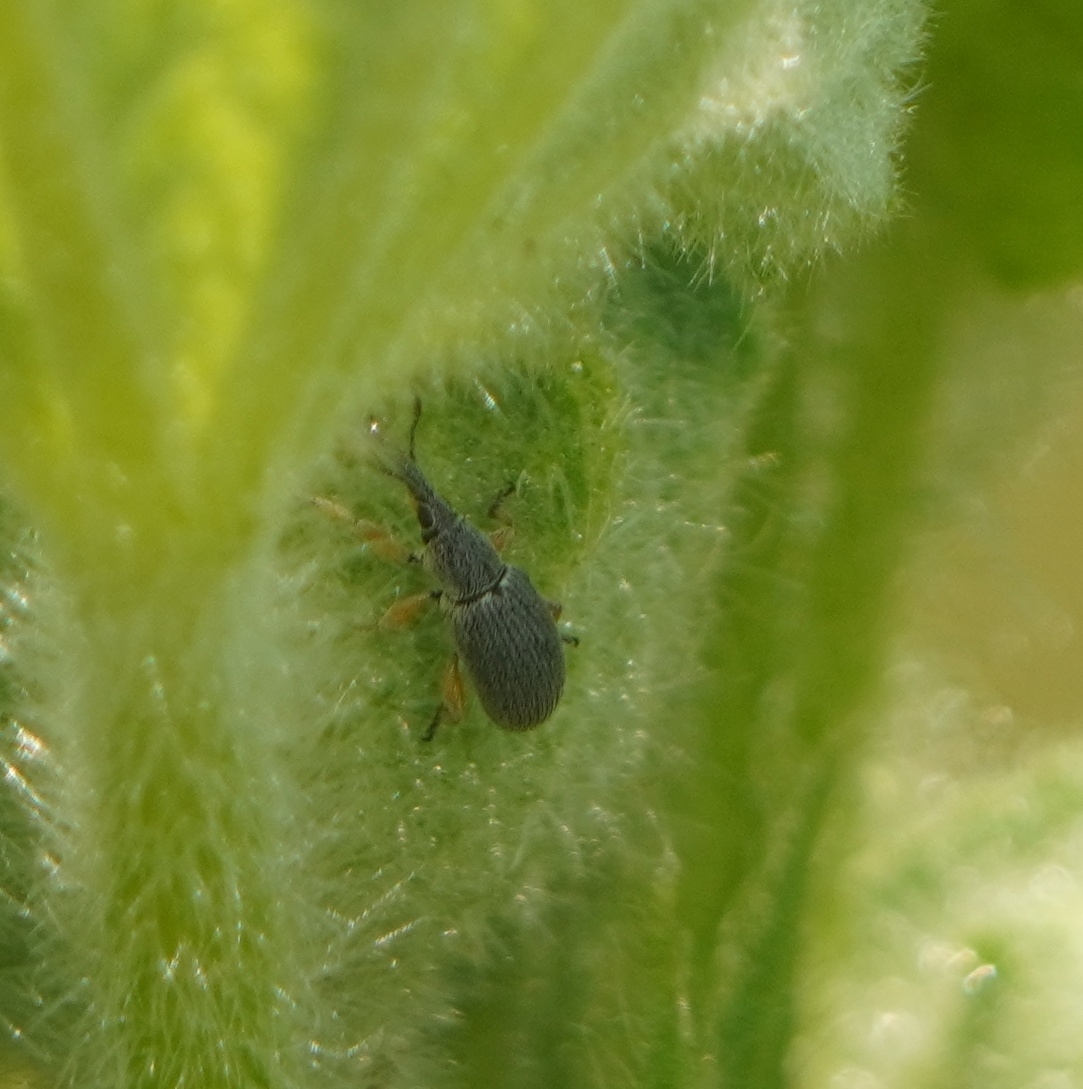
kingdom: Animalia
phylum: Arthropoda
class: Insecta
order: Coleoptera
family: Brentidae
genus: Rhopalapion
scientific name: Rhopalapion longirostre
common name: Hollyhock weevil
